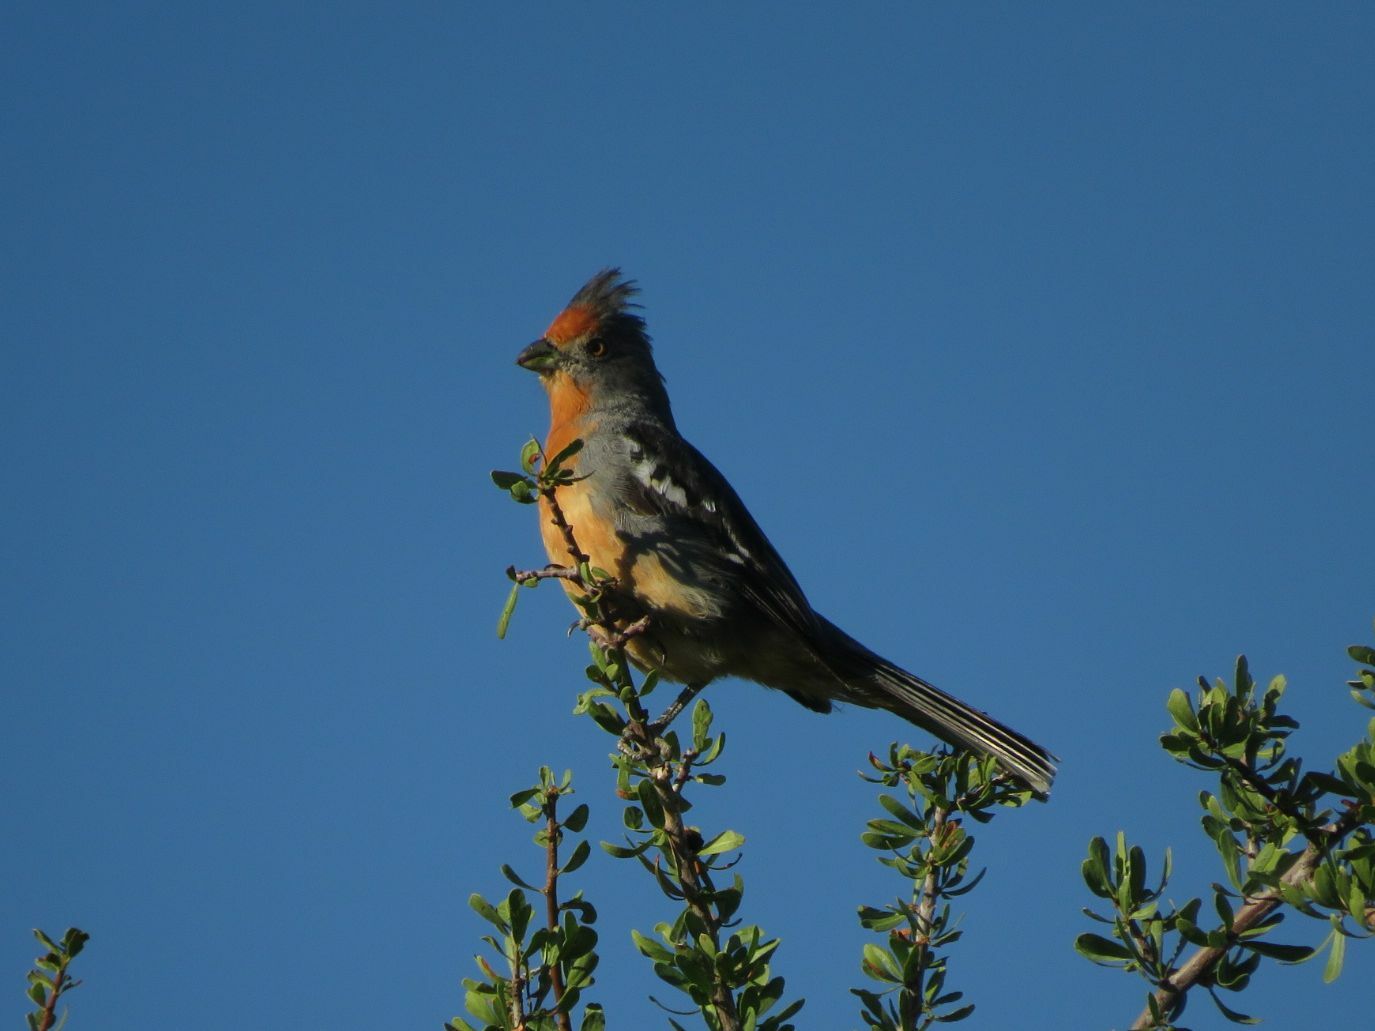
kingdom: Animalia
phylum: Chordata
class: Aves
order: Passeriformes
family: Cotingidae
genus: Phytotoma
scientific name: Phytotoma rutila
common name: White-tipped plantcutter
